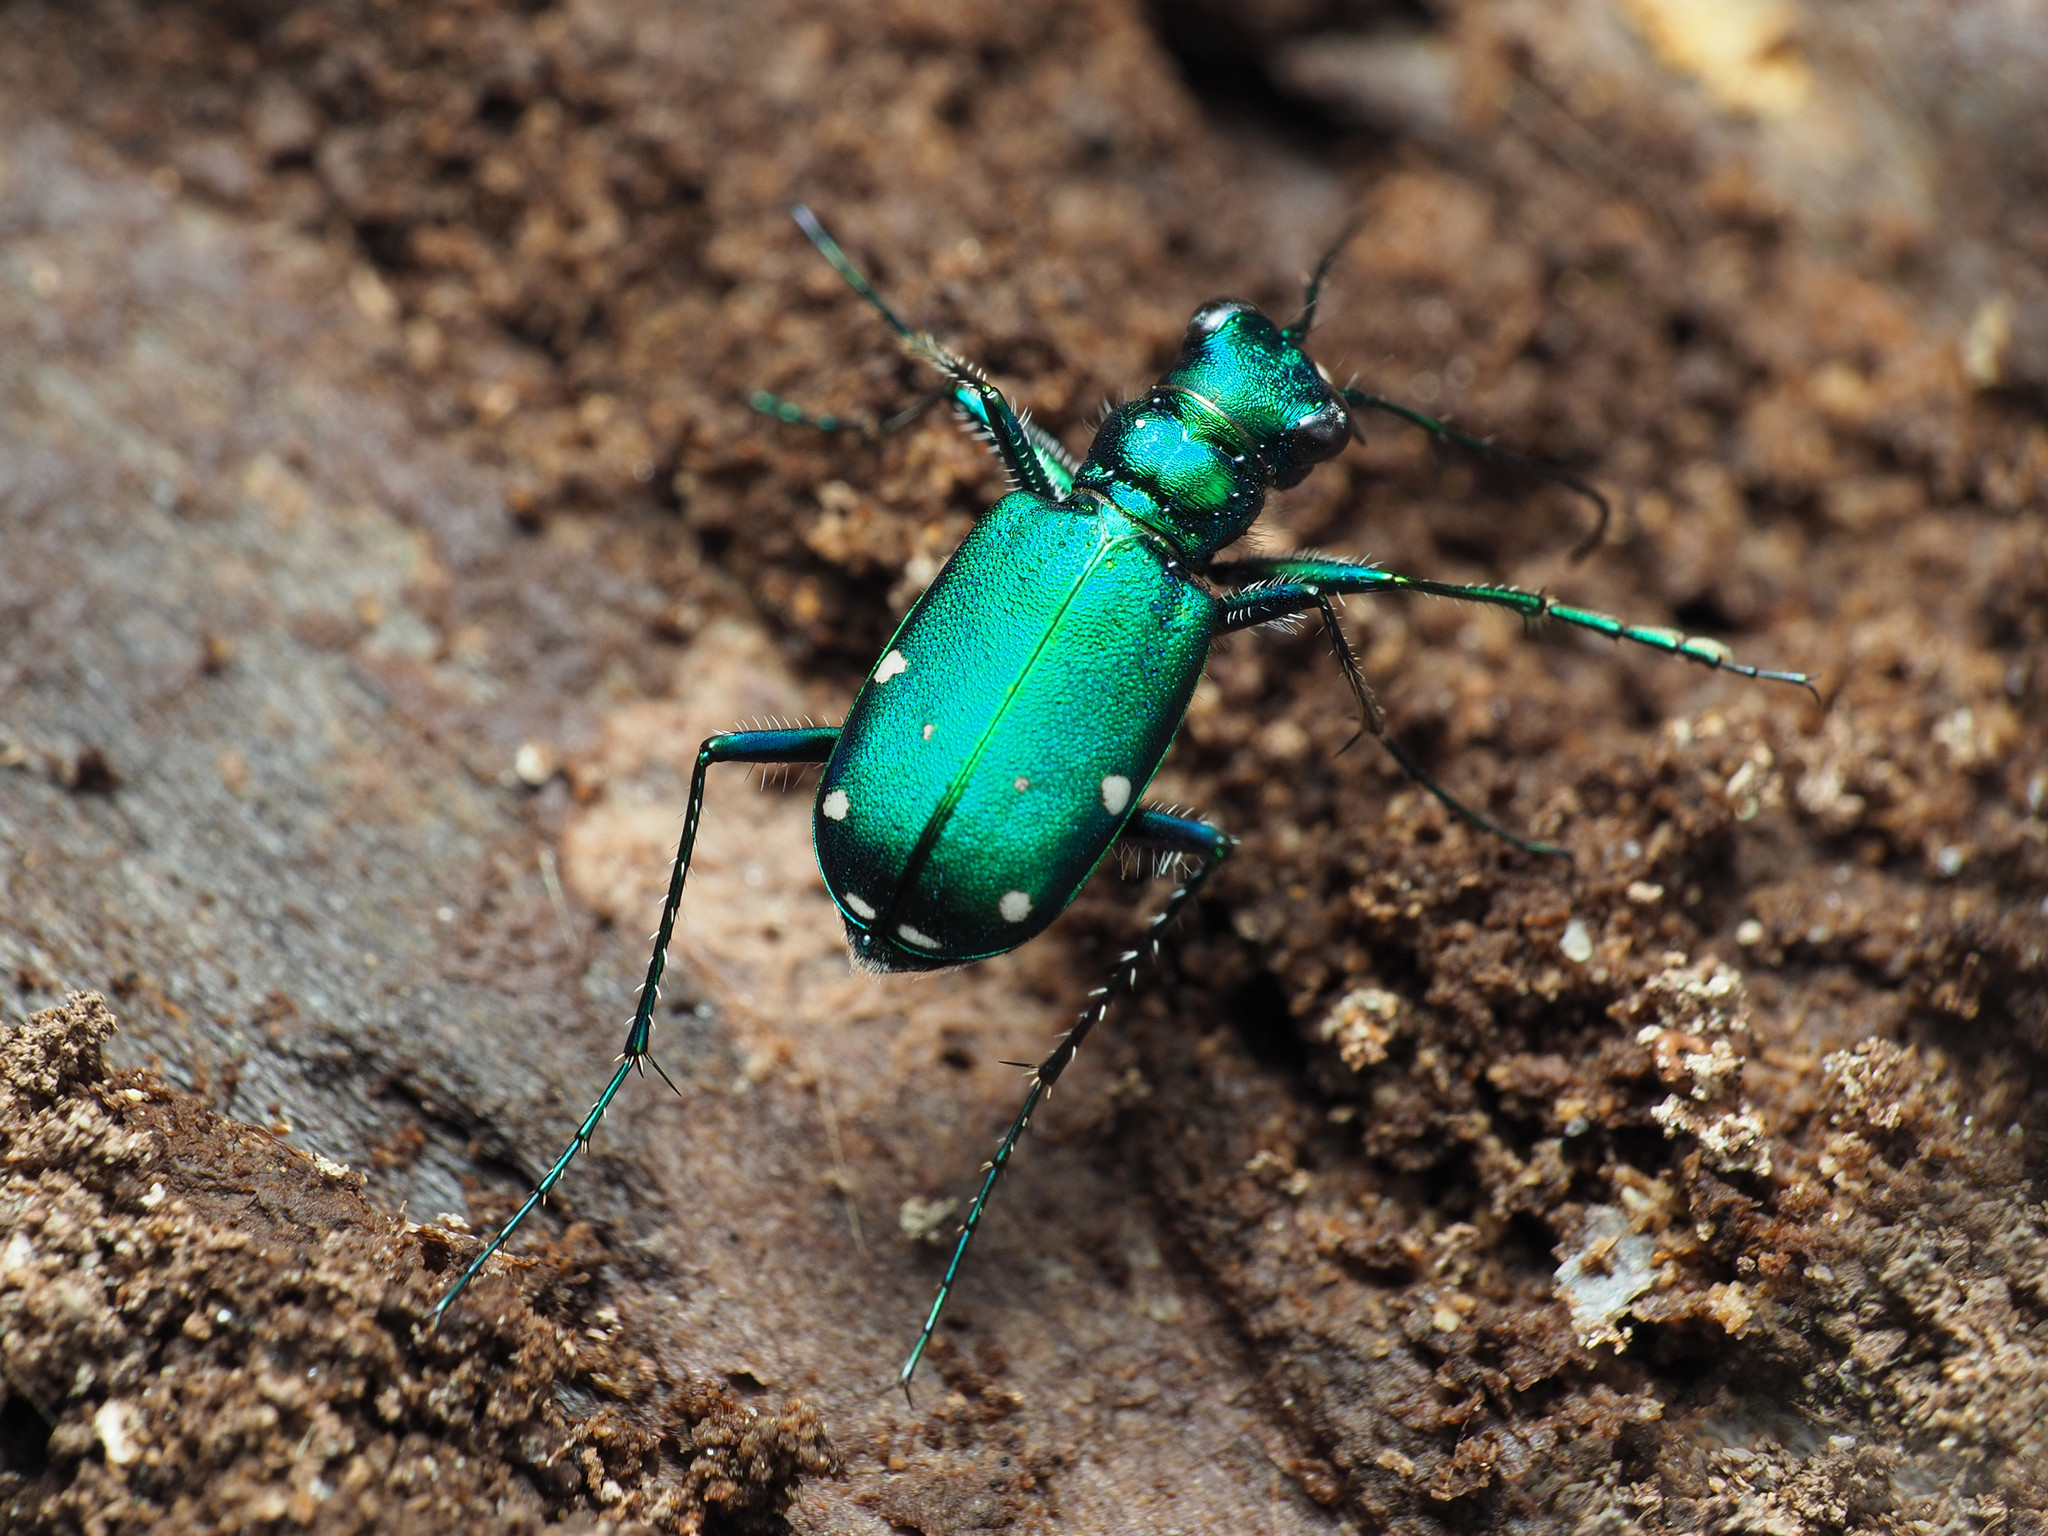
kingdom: Animalia
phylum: Arthropoda
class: Insecta
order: Coleoptera
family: Carabidae
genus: Cicindela
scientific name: Cicindela sexguttata
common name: Six-spotted tiger beetle
